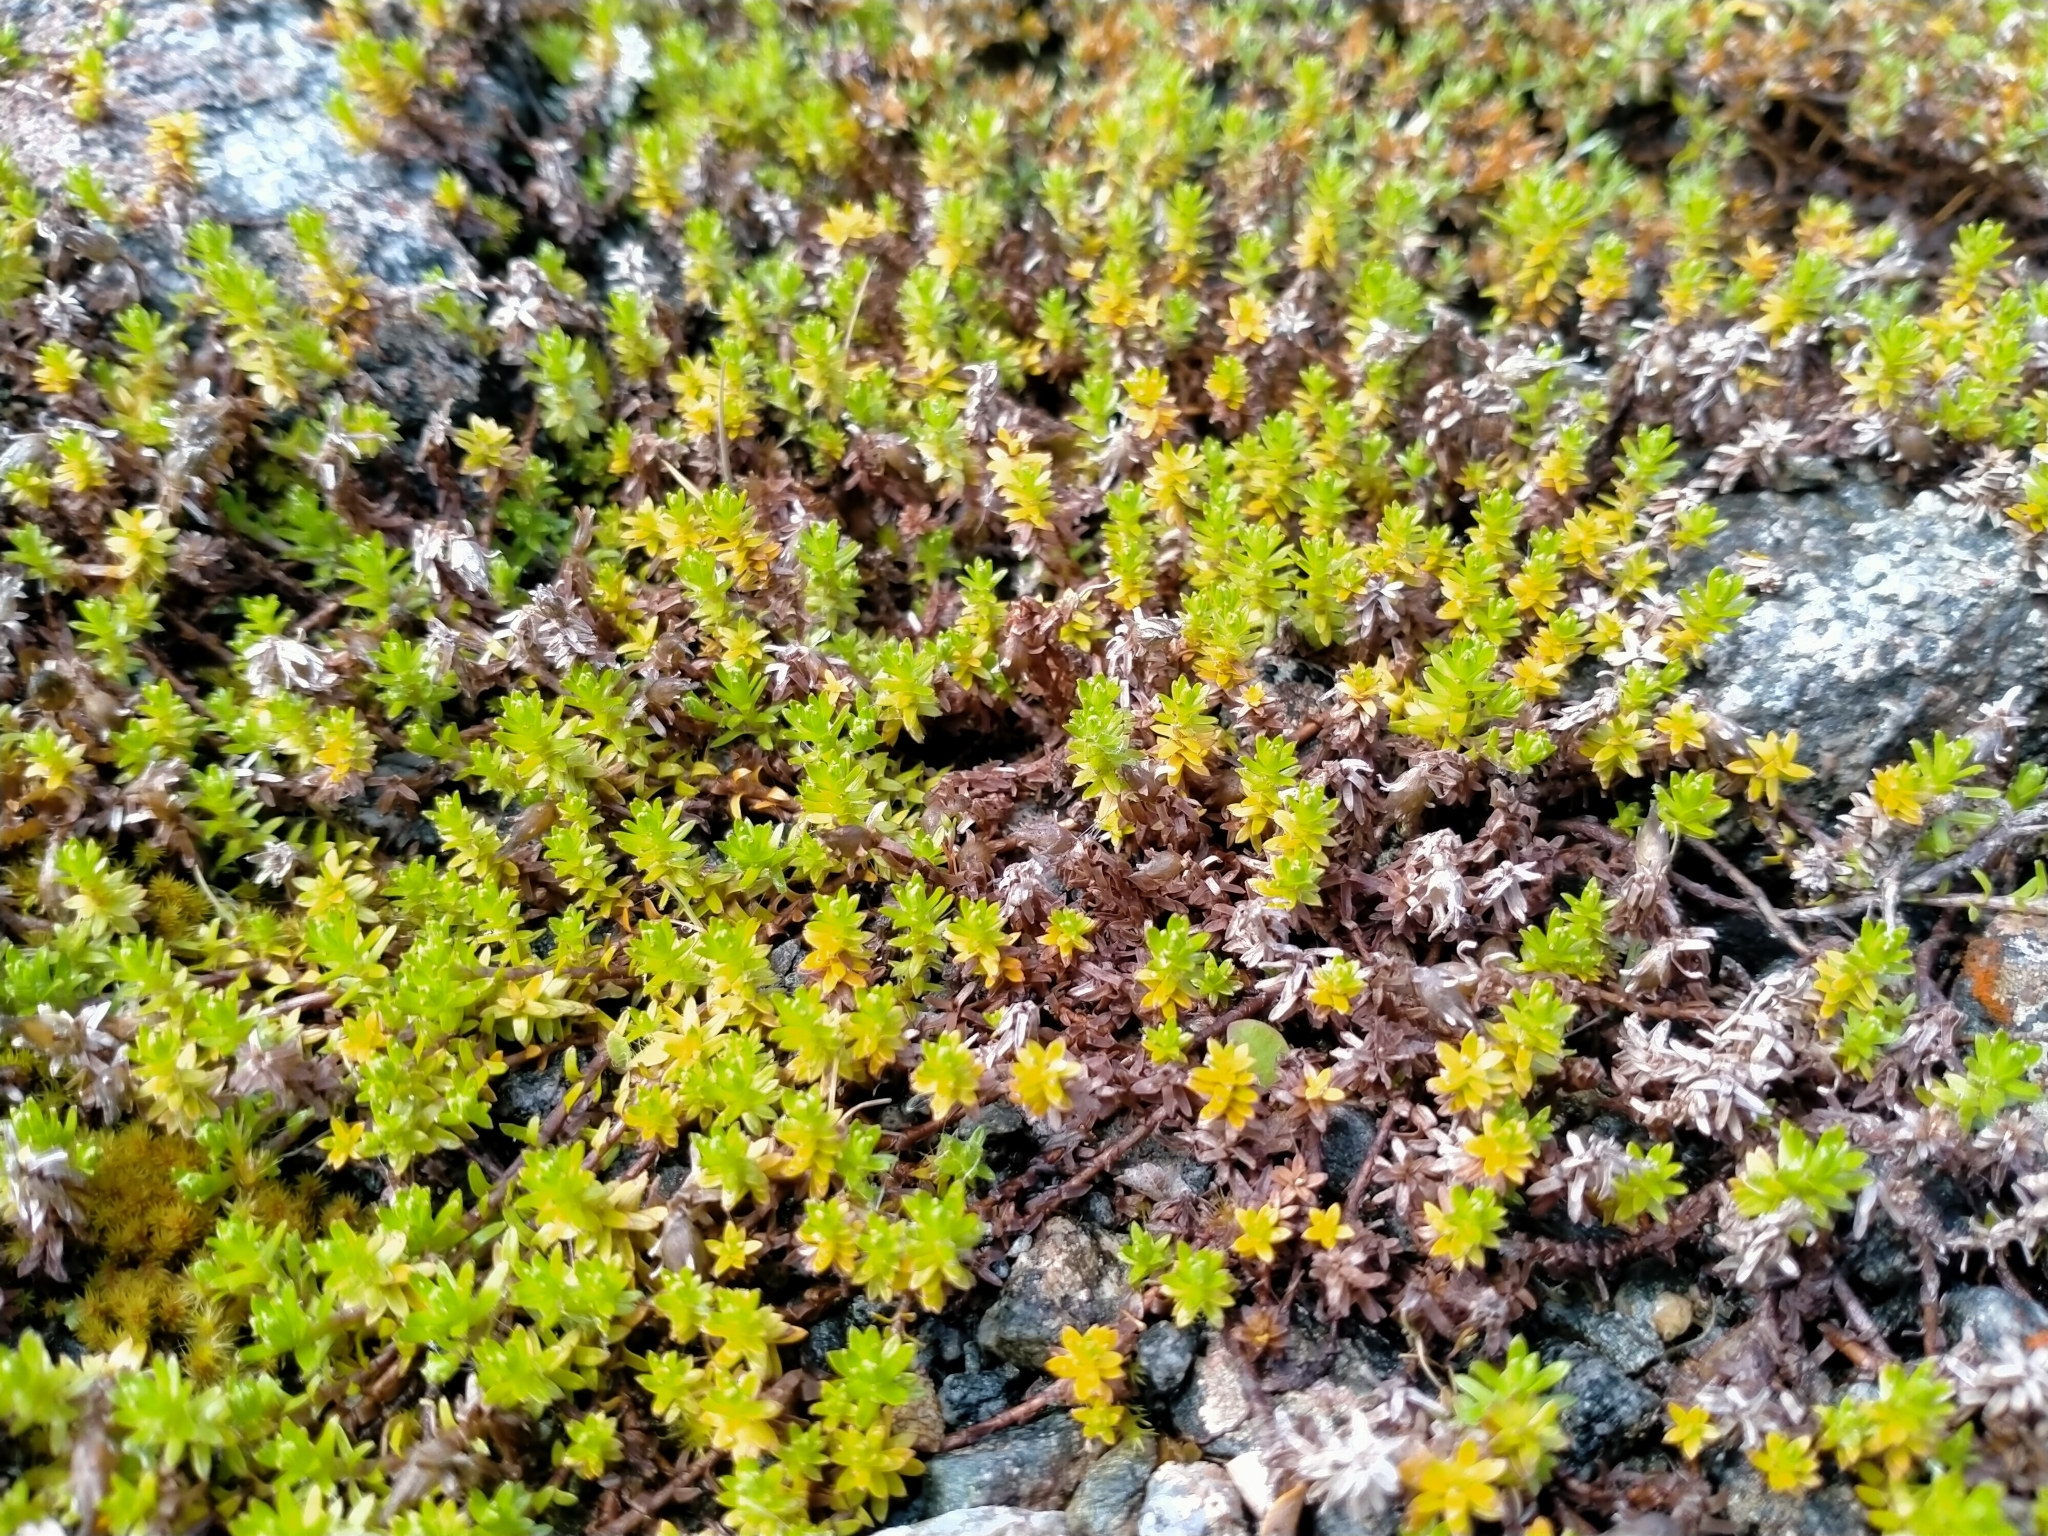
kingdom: Plantae
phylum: Tracheophyta
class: Magnoliopsida
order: Asterales
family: Asteraceae
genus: Raoulia
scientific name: Raoulia glabra
